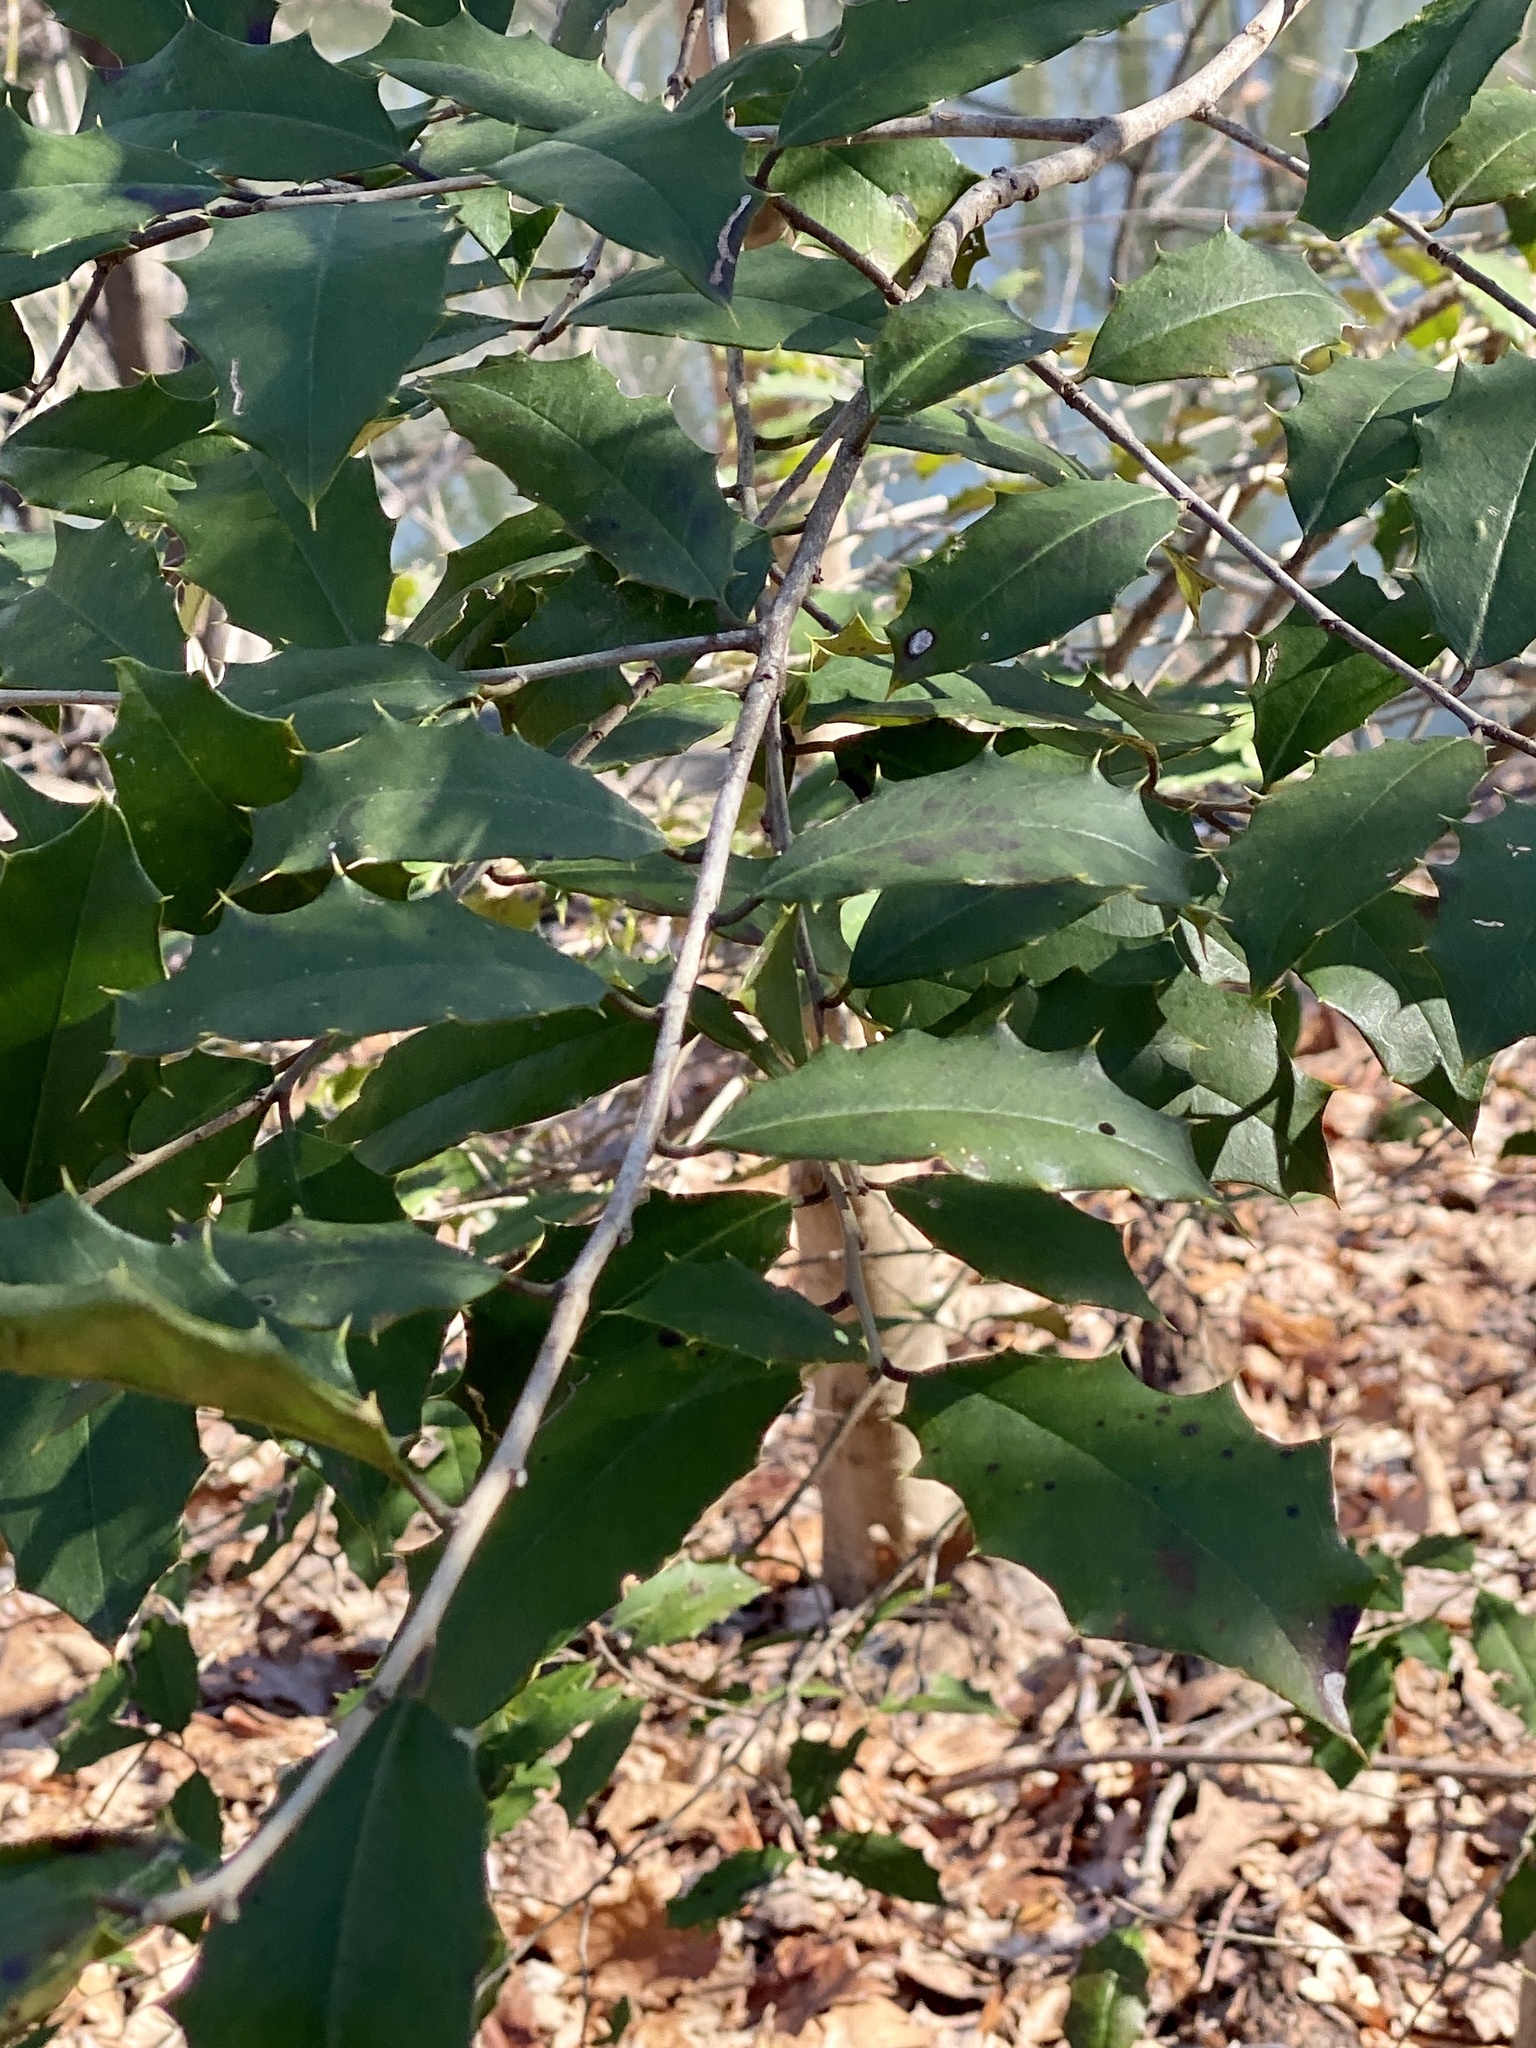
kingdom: Plantae
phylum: Tracheophyta
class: Magnoliopsida
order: Aquifoliales
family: Aquifoliaceae
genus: Ilex
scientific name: Ilex opaca
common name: American holly
